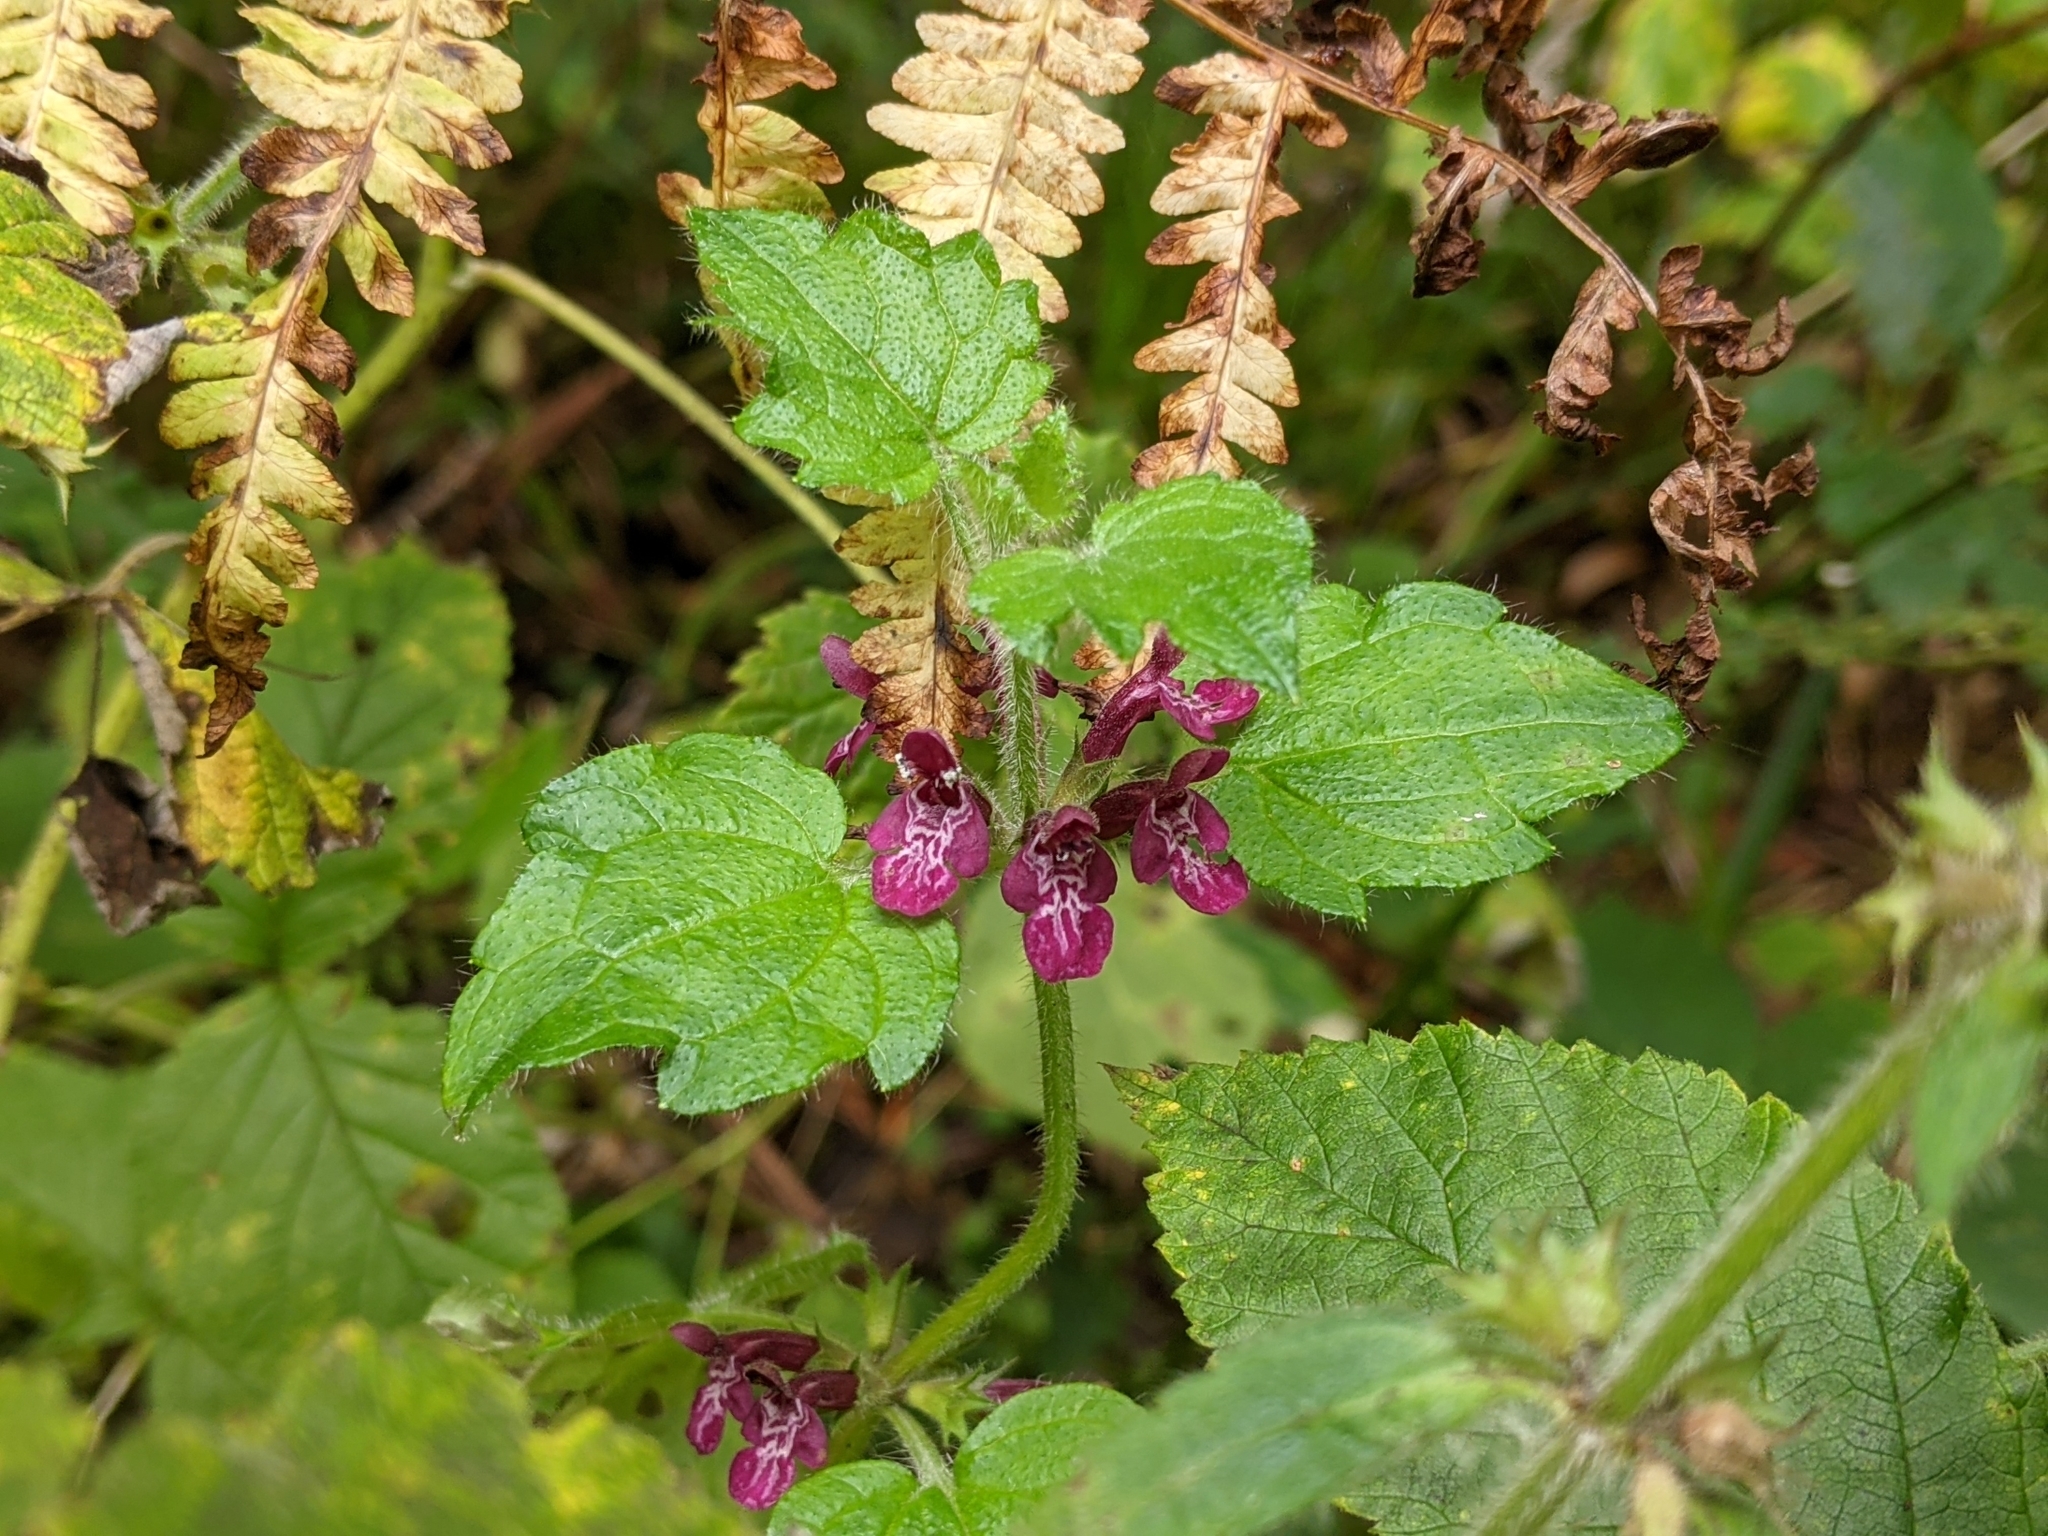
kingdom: Plantae
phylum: Tracheophyta
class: Magnoliopsida
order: Lamiales
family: Lamiaceae
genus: Stachys
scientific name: Stachys sylvatica
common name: Hedge woundwort
